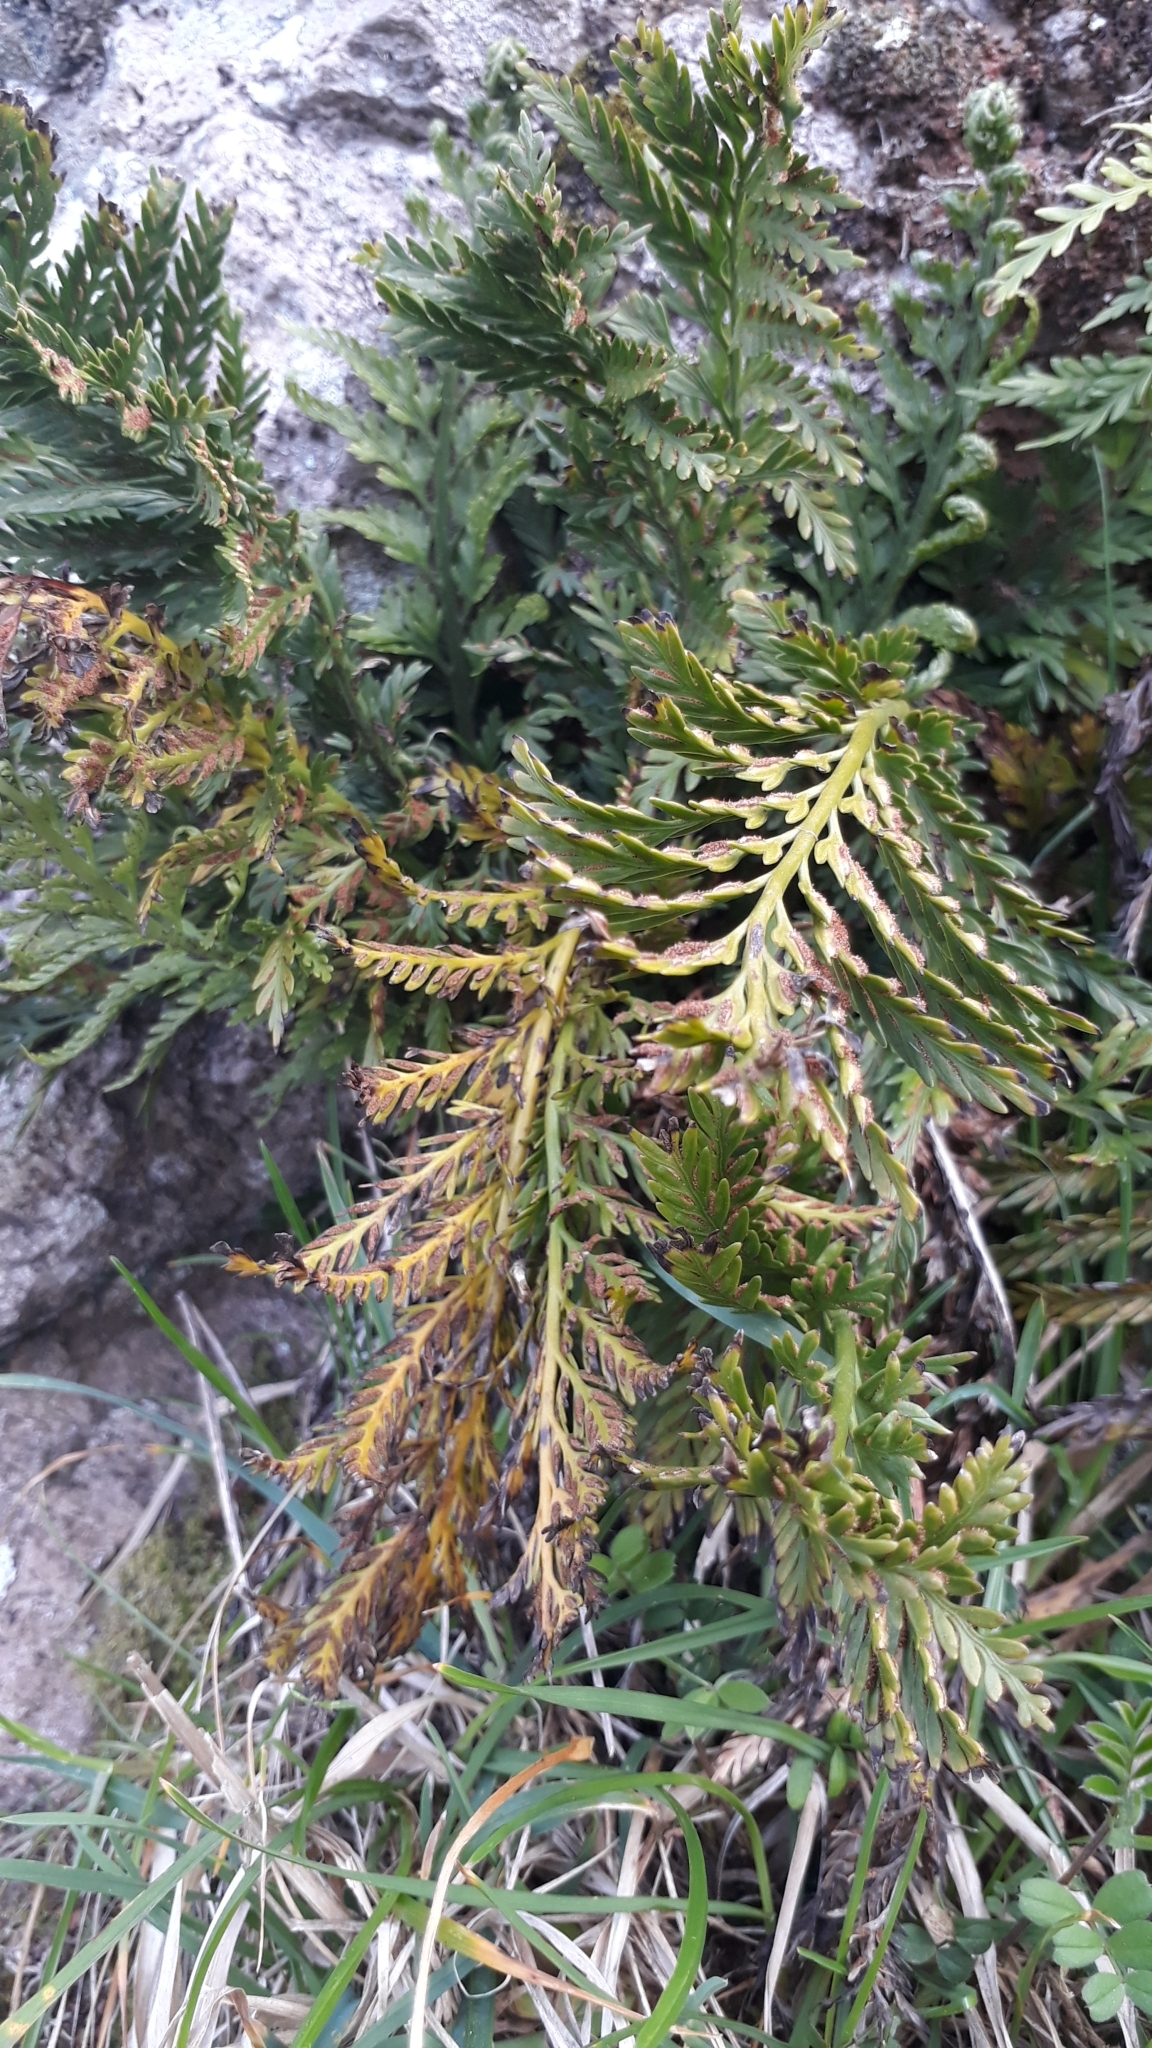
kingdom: Plantae
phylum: Tracheophyta
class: Polypodiopsida
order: Polypodiales
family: Aspleniaceae
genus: Asplenium
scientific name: Asplenium appendiculatum
